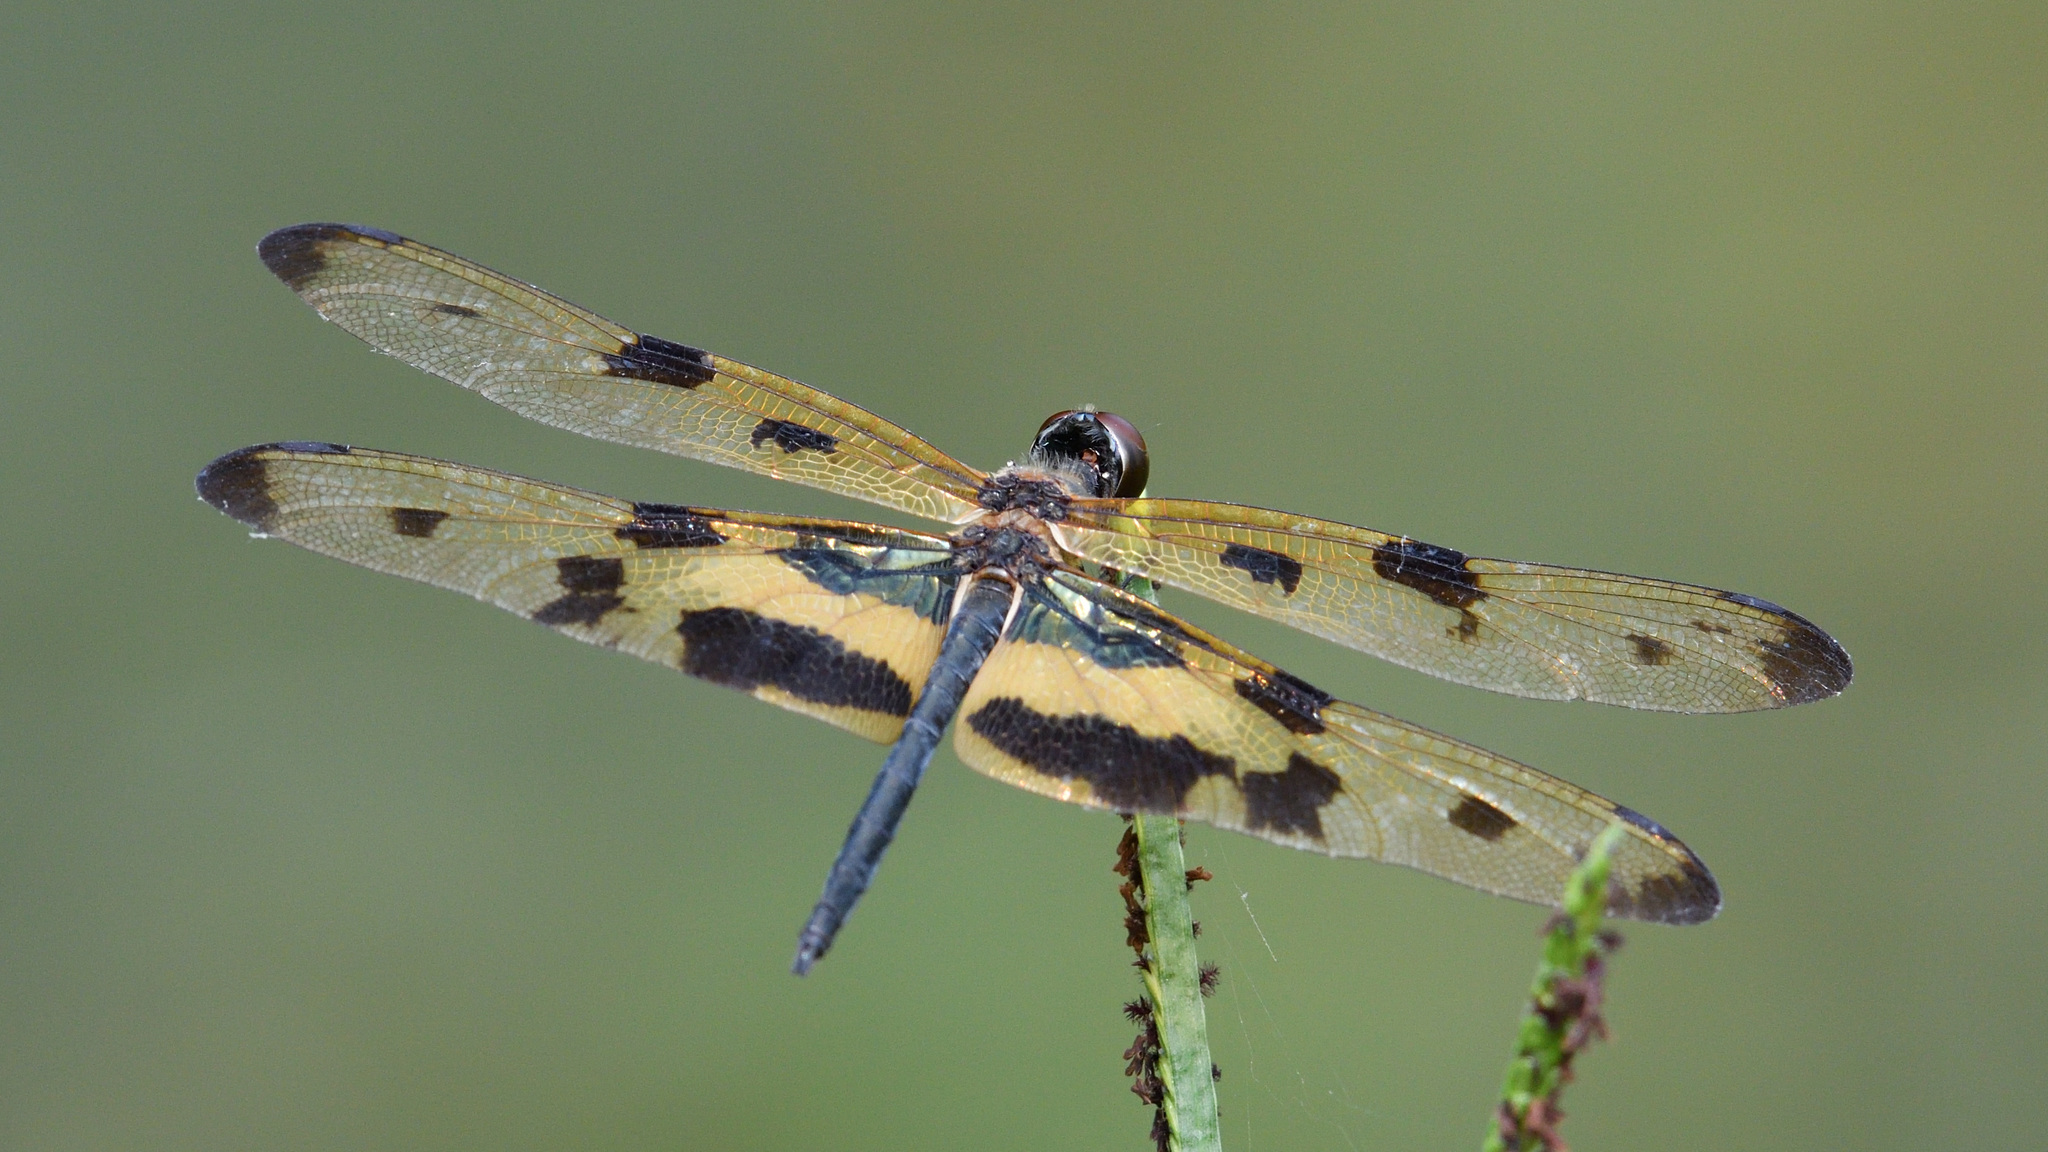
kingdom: Animalia
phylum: Arthropoda
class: Insecta
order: Odonata
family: Libellulidae
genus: Rhyothemis
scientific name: Rhyothemis variegata
